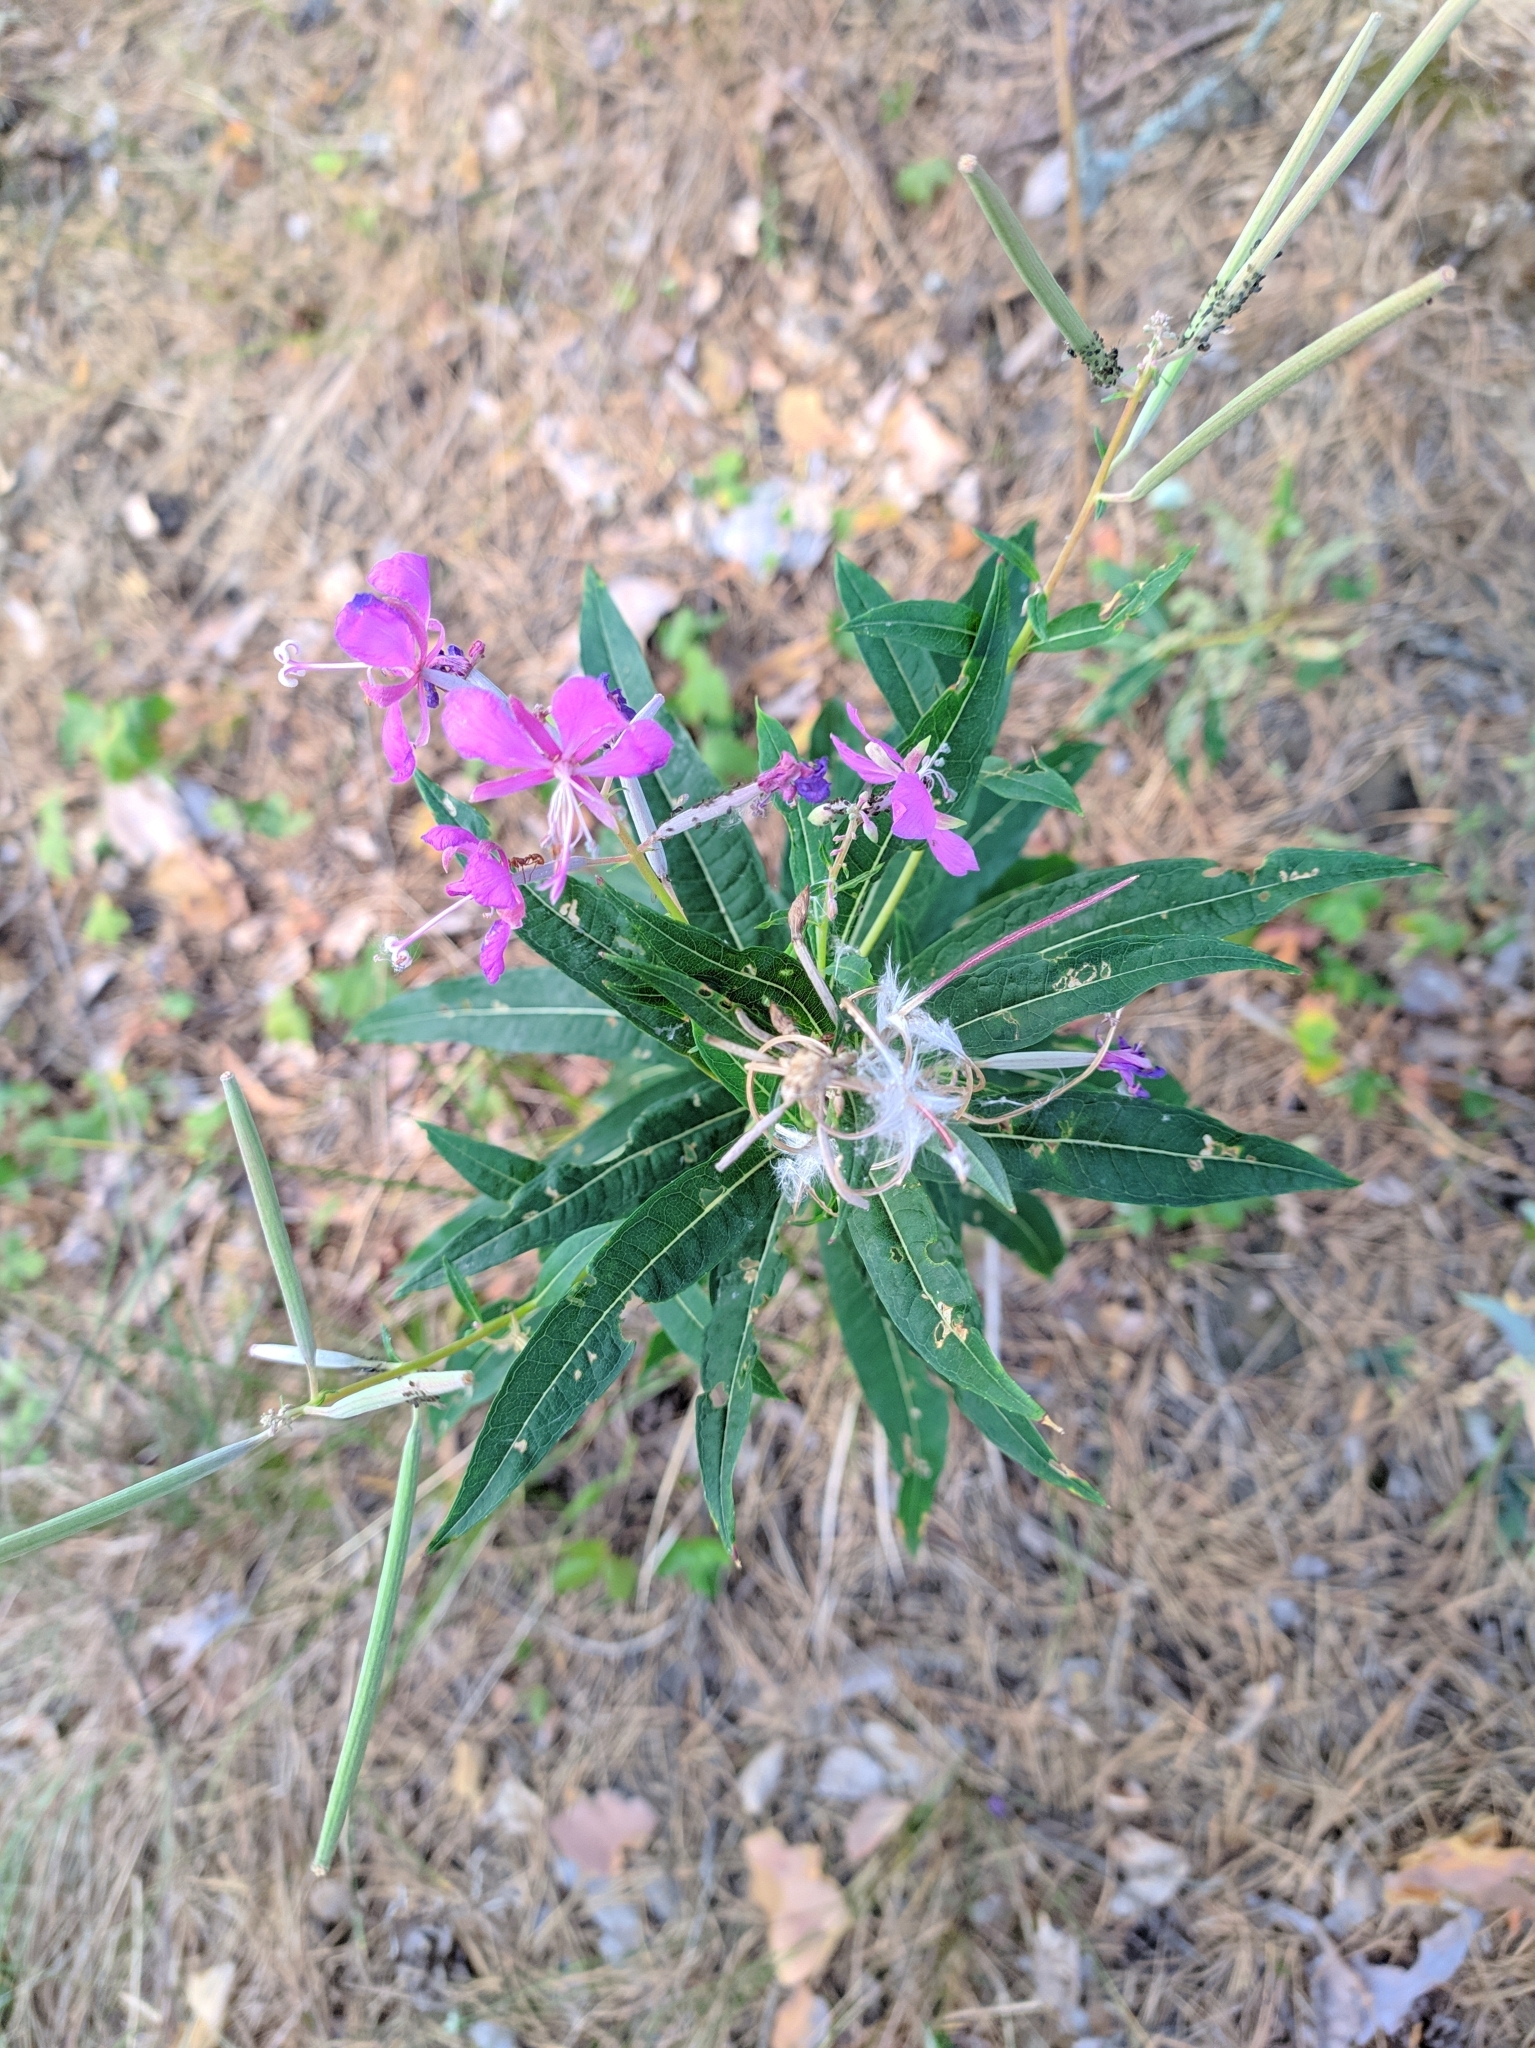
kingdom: Plantae
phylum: Tracheophyta
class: Magnoliopsida
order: Myrtales
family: Onagraceae
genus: Chamaenerion
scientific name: Chamaenerion angustifolium
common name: Fireweed
